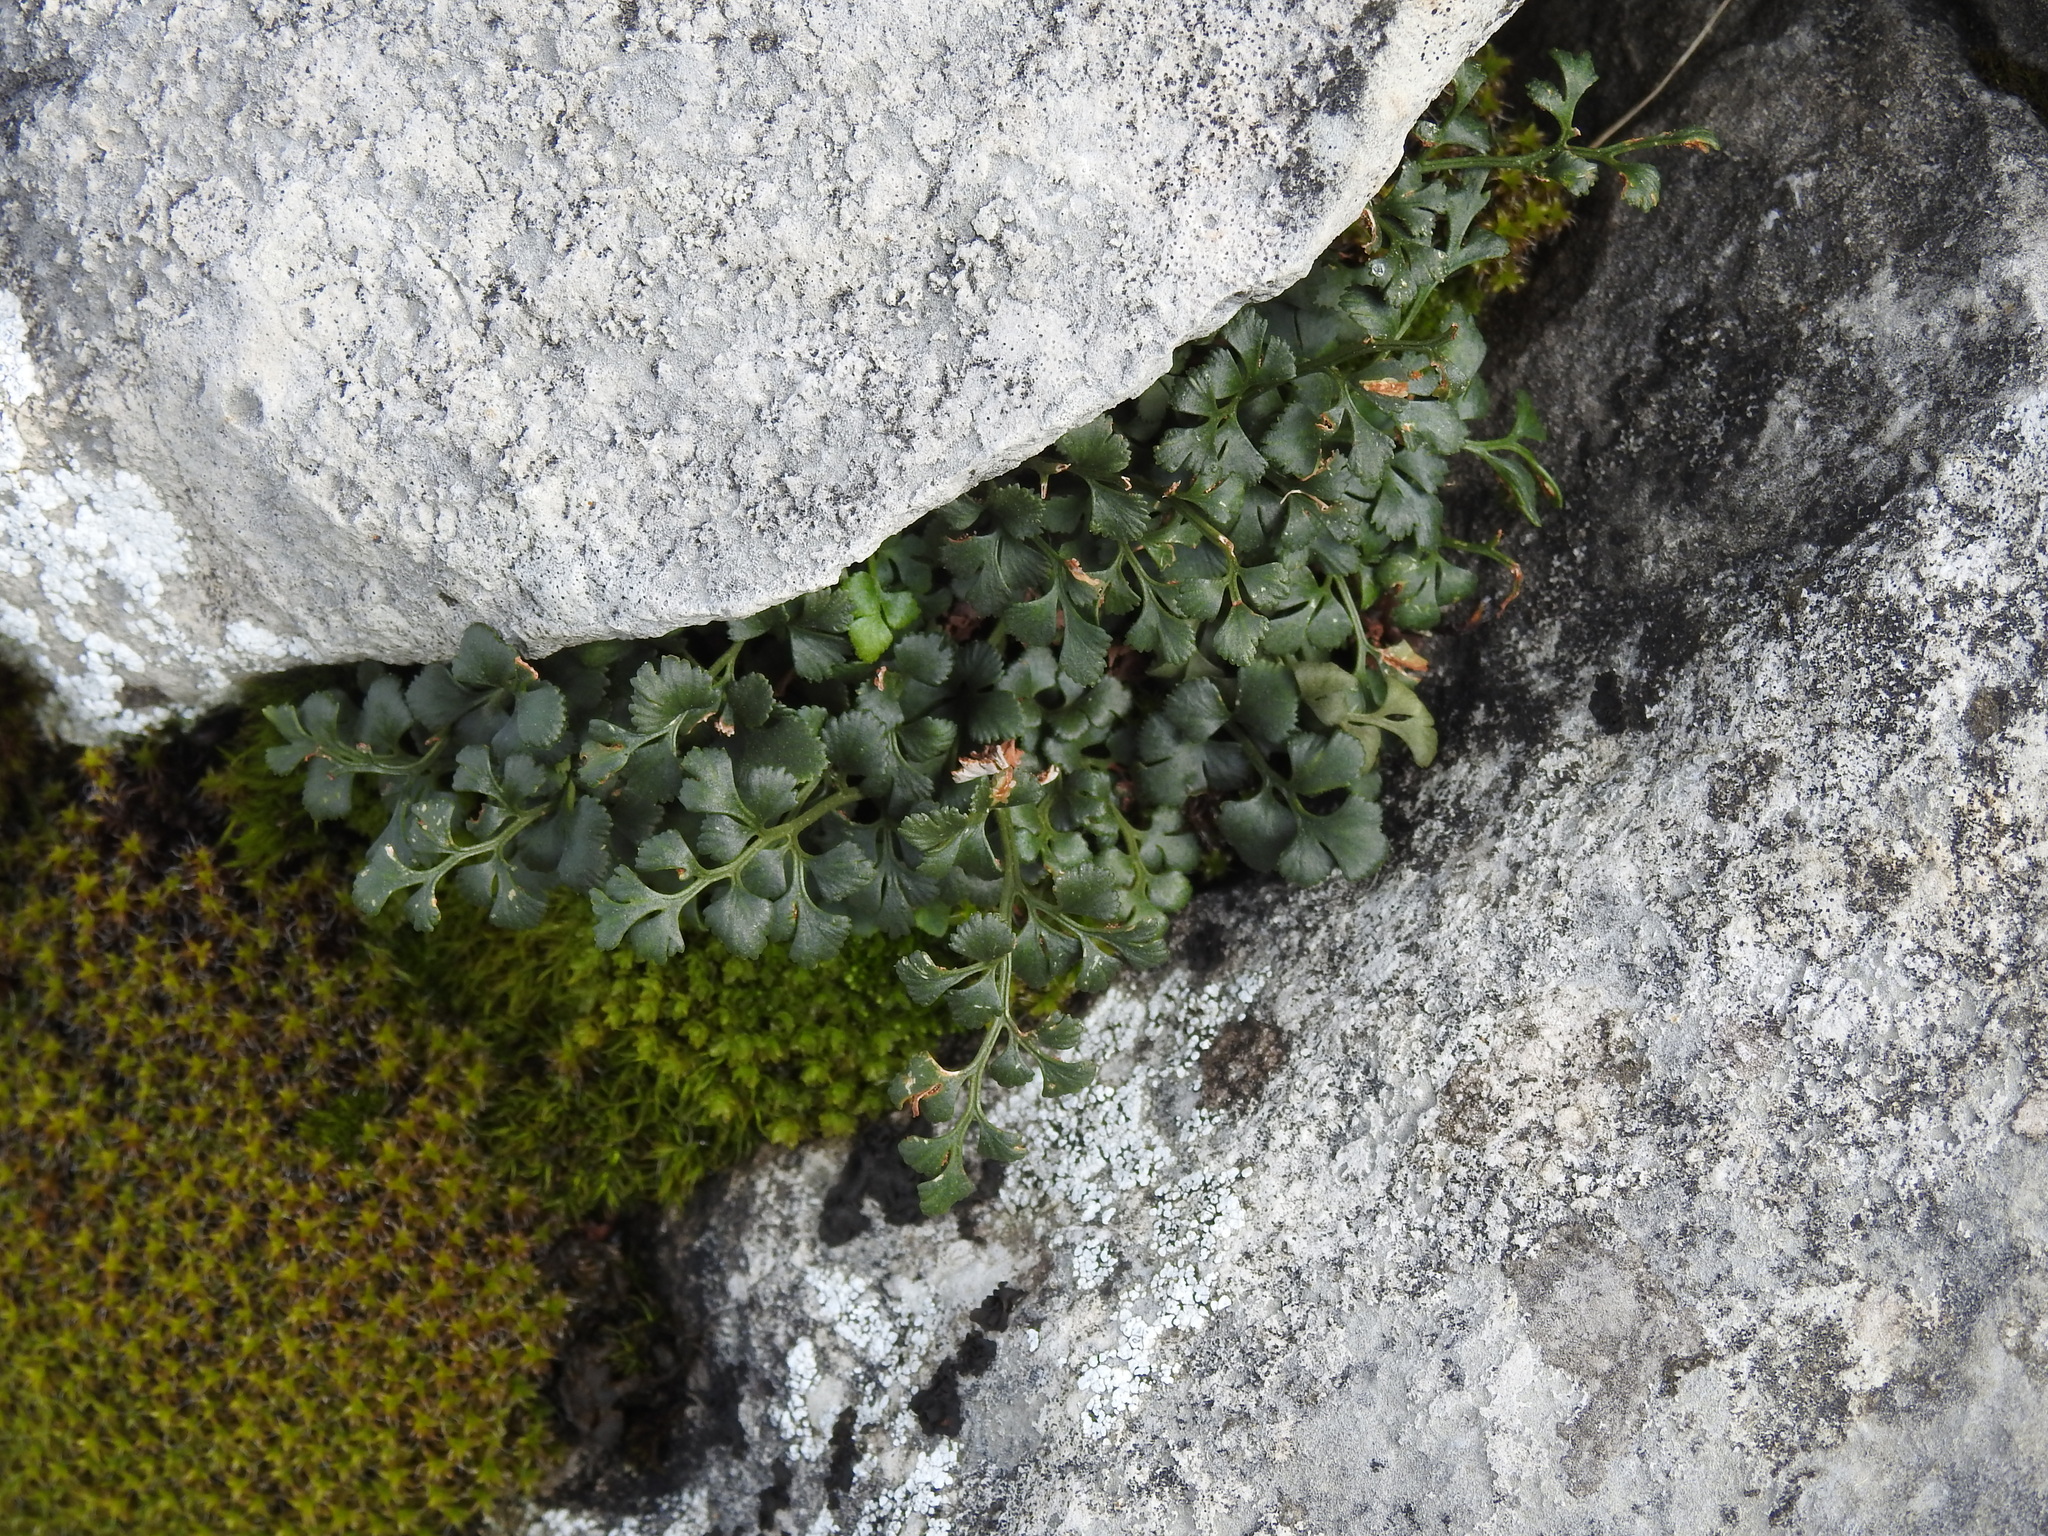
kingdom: Plantae
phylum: Tracheophyta
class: Polypodiopsida
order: Polypodiales
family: Aspleniaceae
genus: Asplenium
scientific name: Asplenium ruta-muraria
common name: Wall-rue
